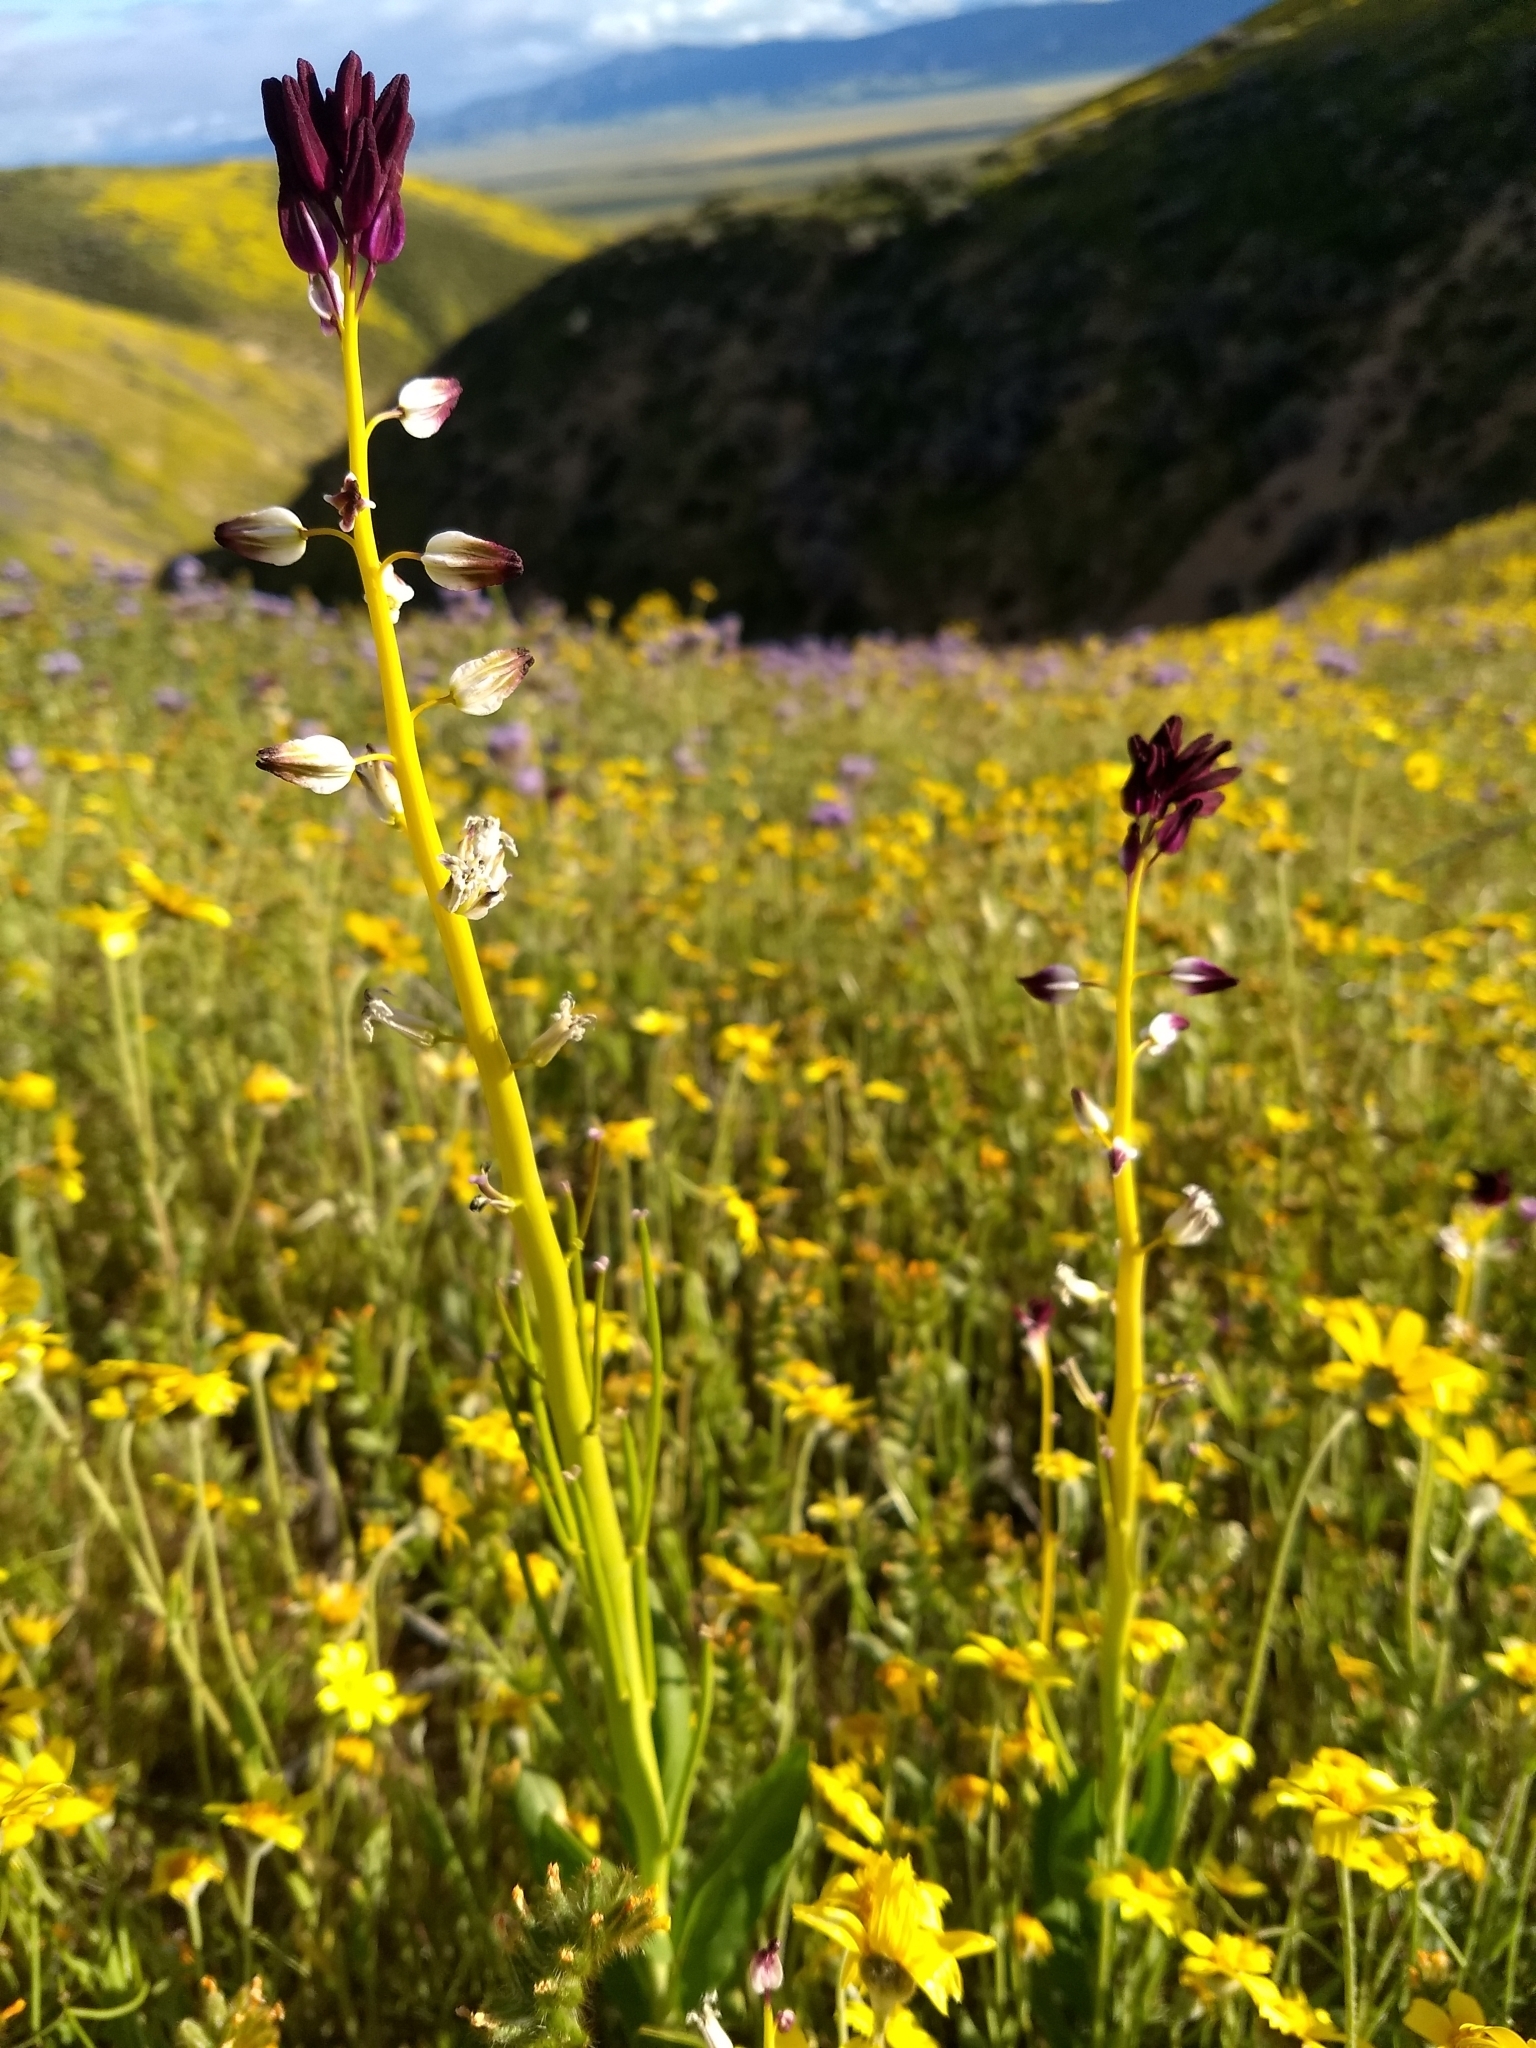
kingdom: Plantae
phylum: Tracheophyta
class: Magnoliopsida
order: Brassicales
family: Brassicaceae
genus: Streptanthus
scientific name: Streptanthus inflatus
